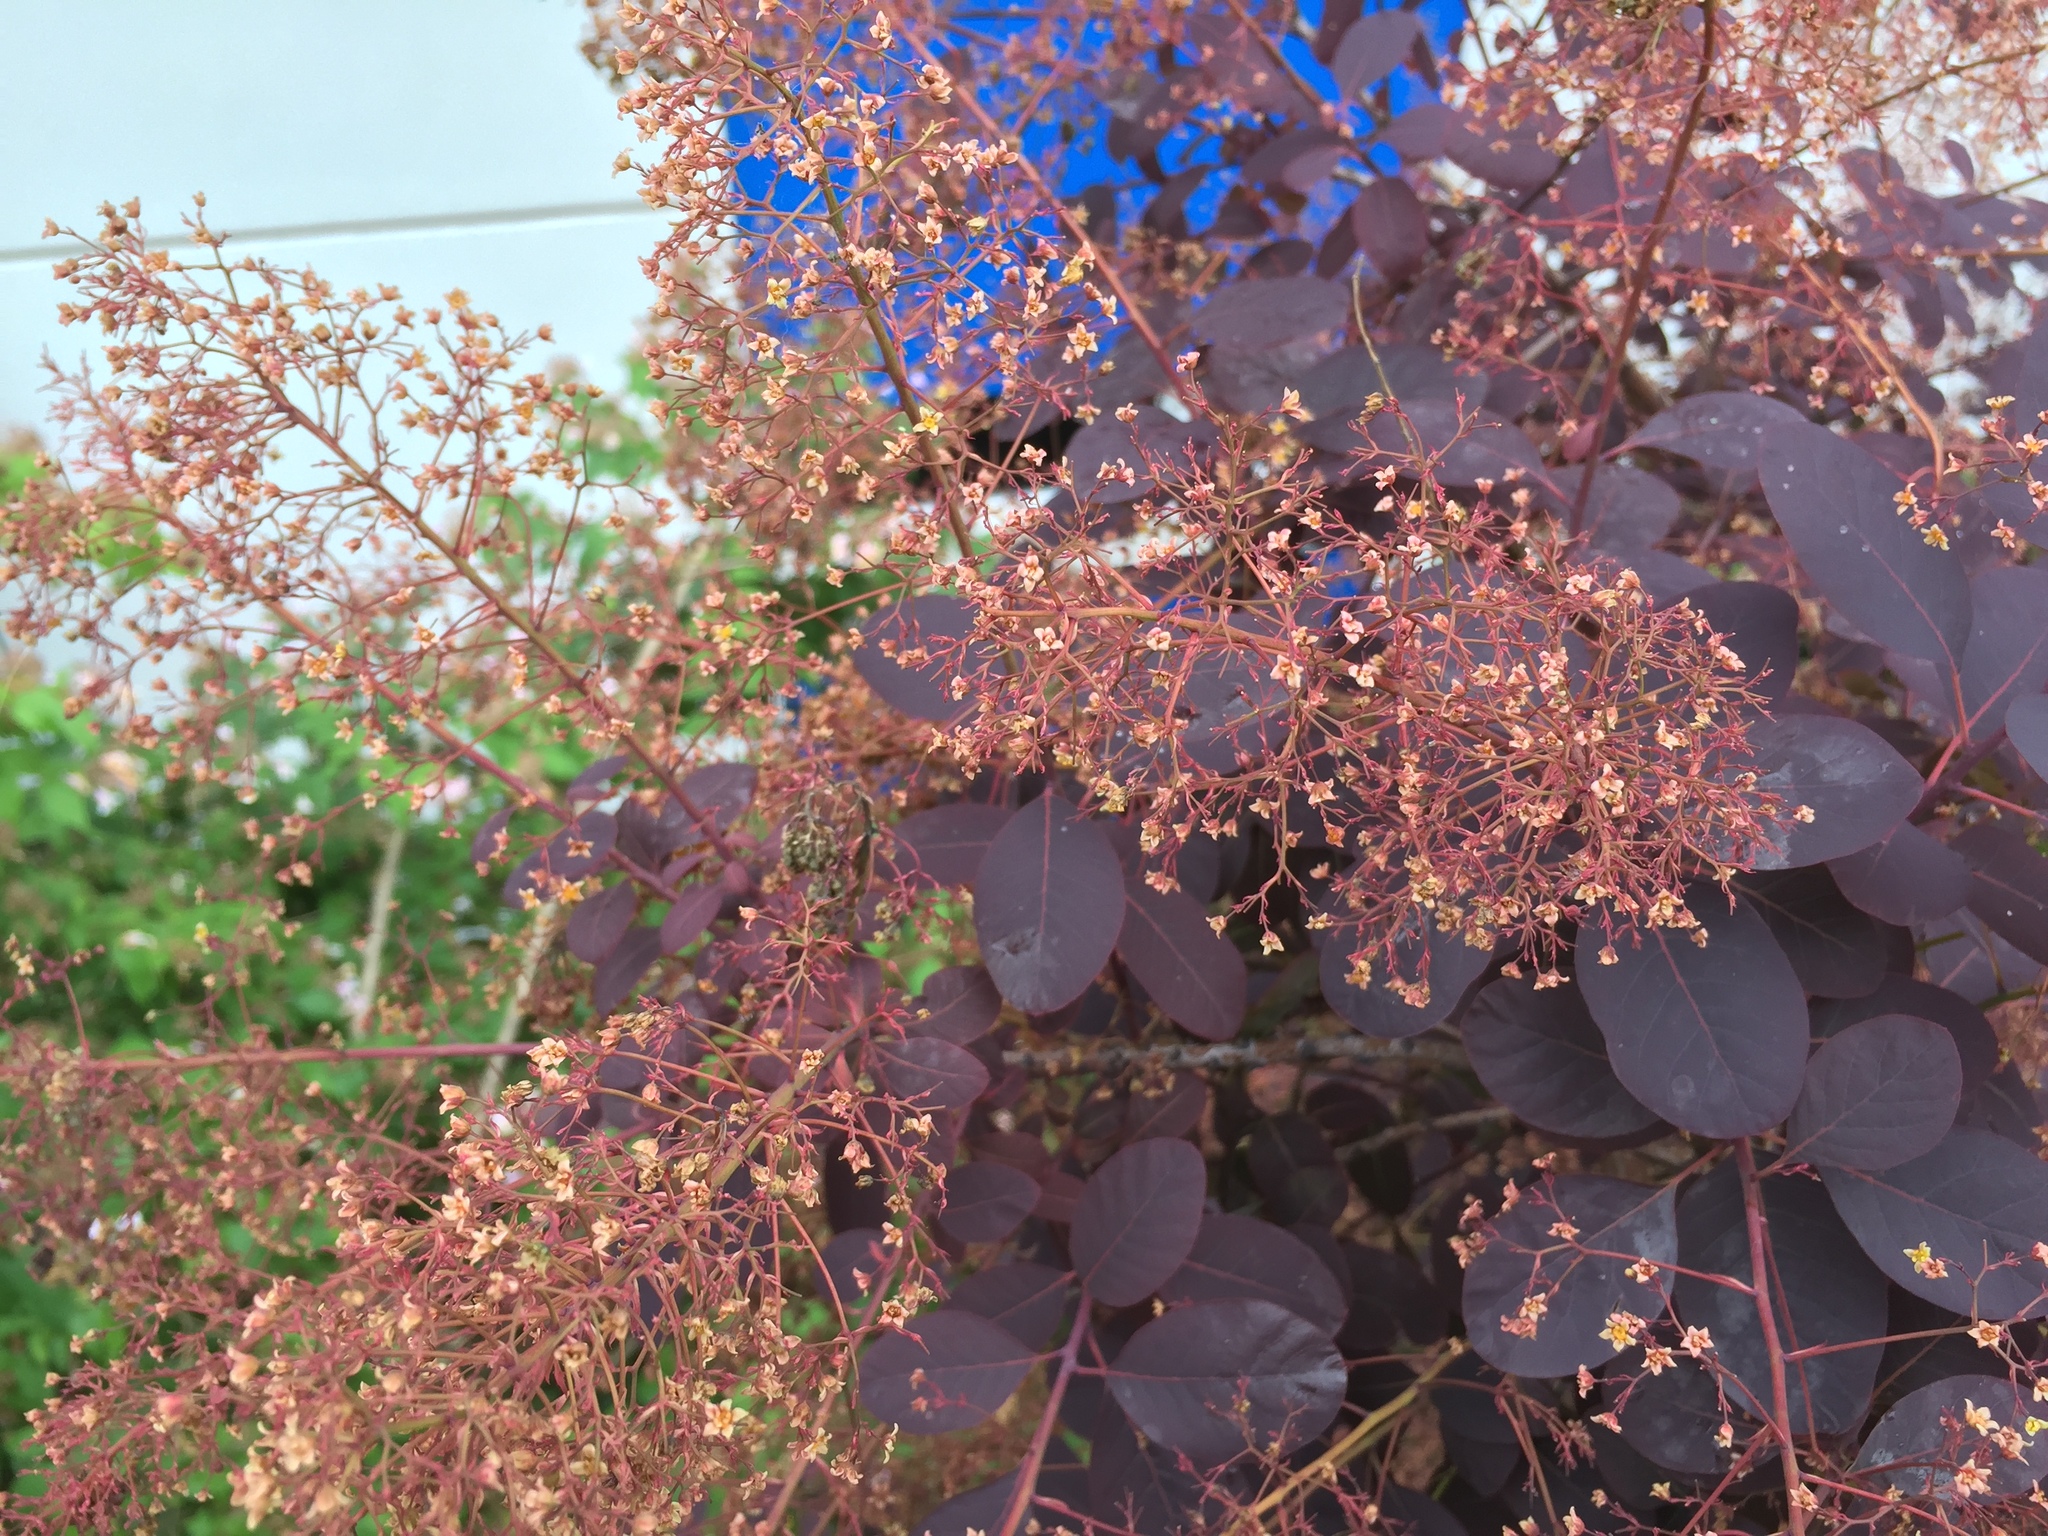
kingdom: Plantae
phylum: Tracheophyta
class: Magnoliopsida
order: Sapindales
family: Anacardiaceae
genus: Cotinus
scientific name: Cotinus coggygria
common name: Smoke-tree
